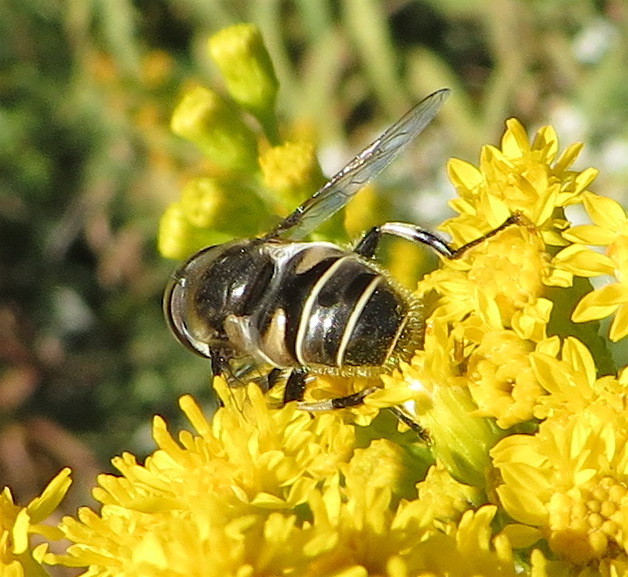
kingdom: Animalia
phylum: Arthropoda
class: Insecta
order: Diptera
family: Syrphidae
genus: Eristalis
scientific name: Eristalis dimidiata
